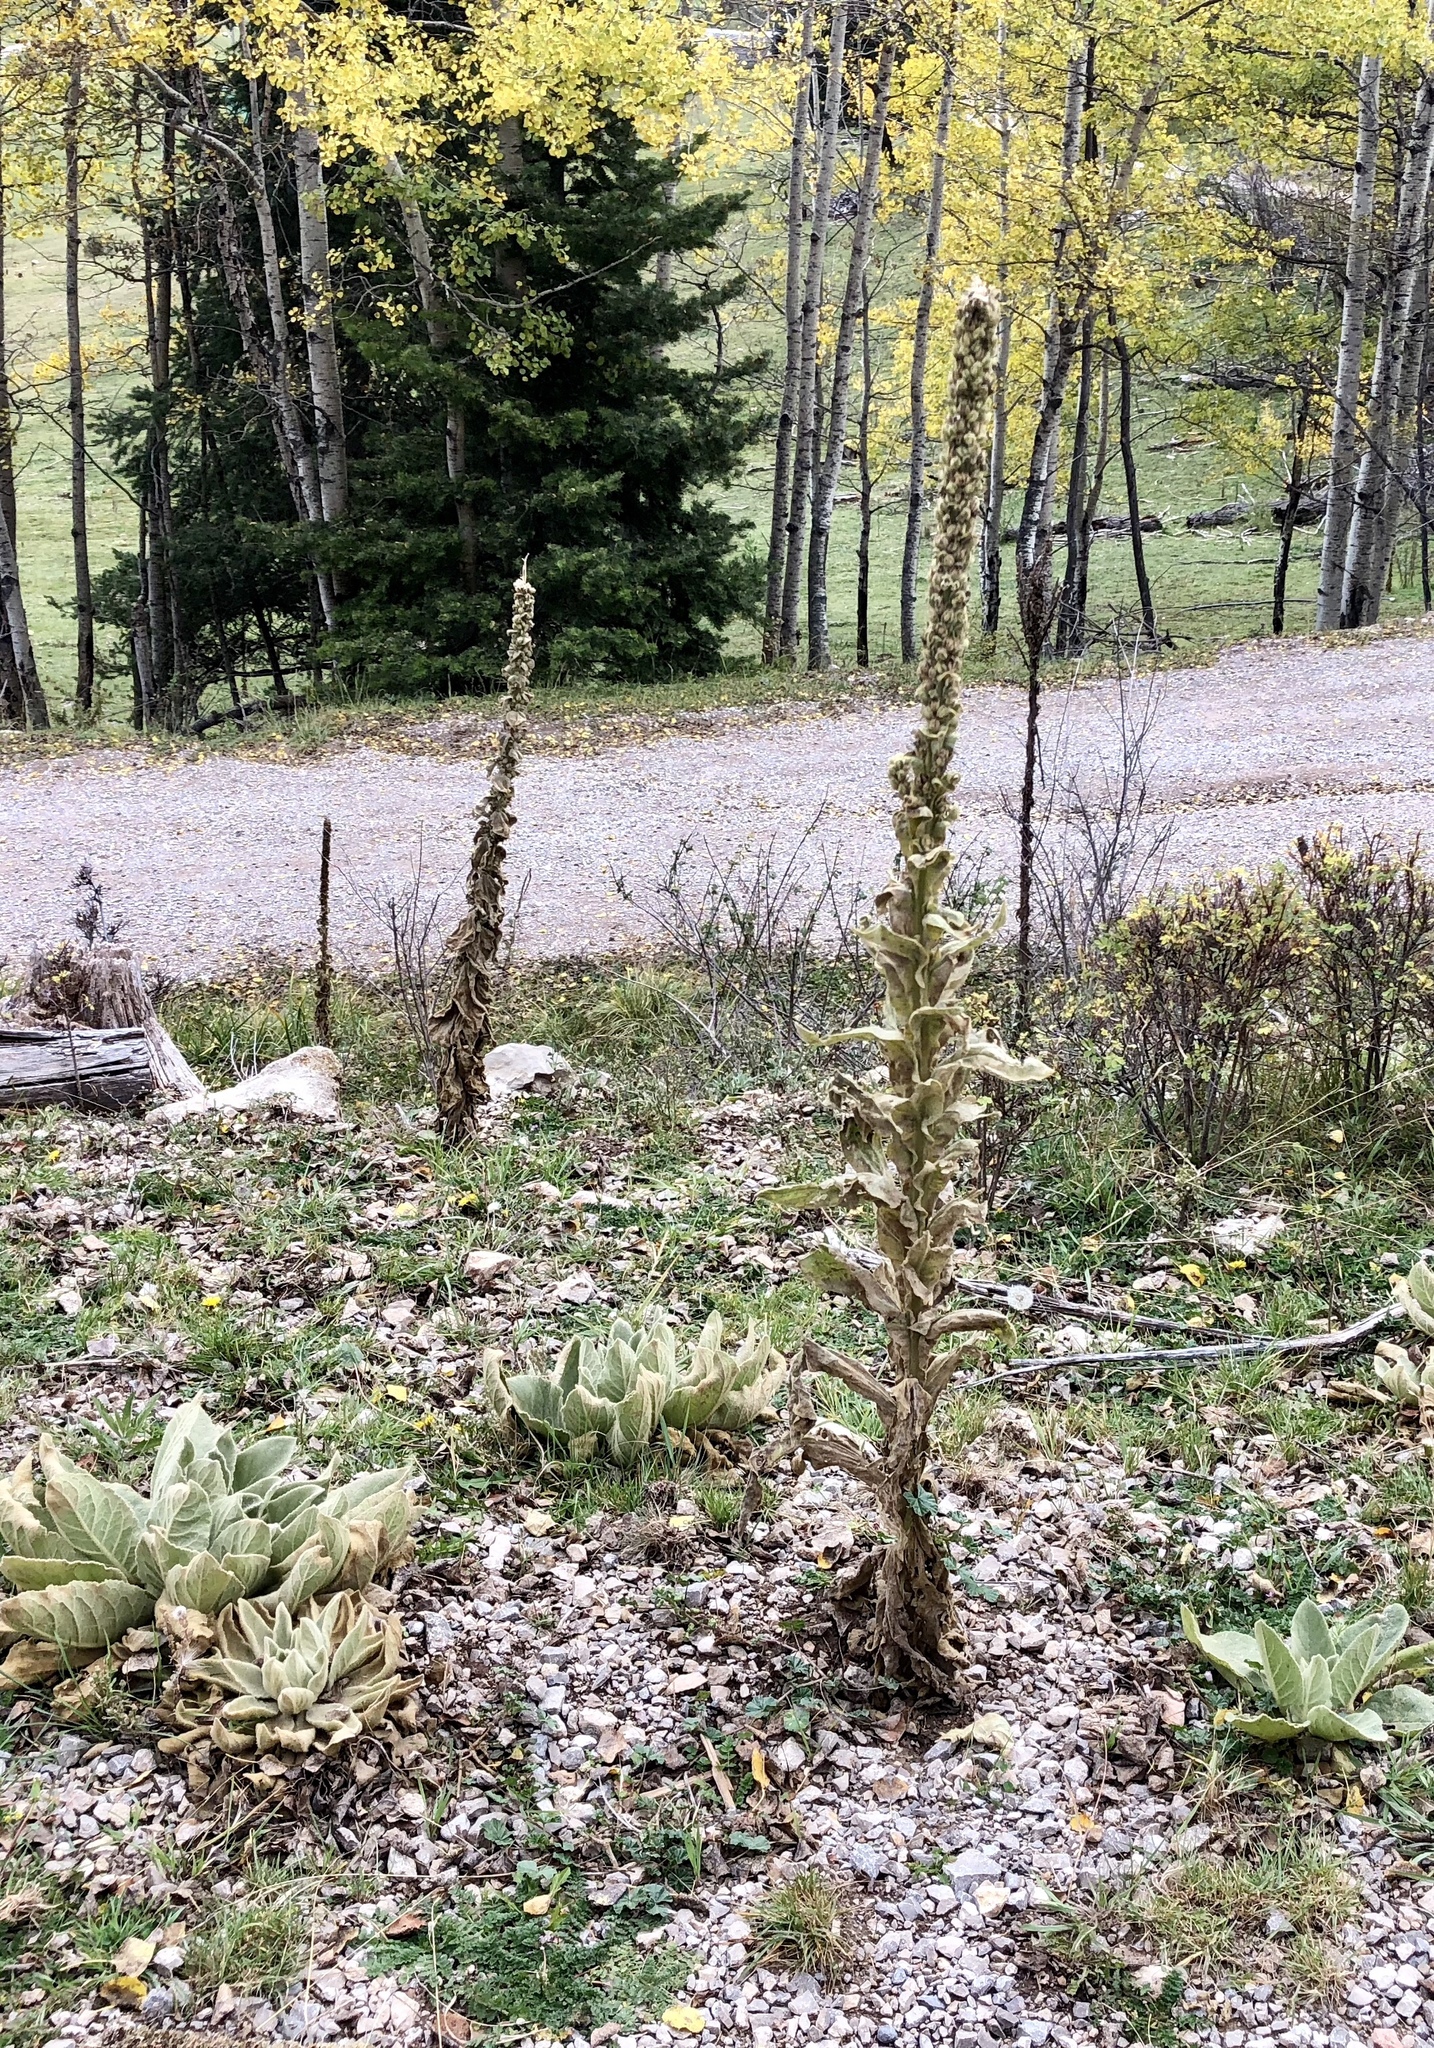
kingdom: Plantae
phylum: Tracheophyta
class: Magnoliopsida
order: Lamiales
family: Scrophulariaceae
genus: Verbascum
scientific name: Verbascum thapsus
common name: Common mullein
